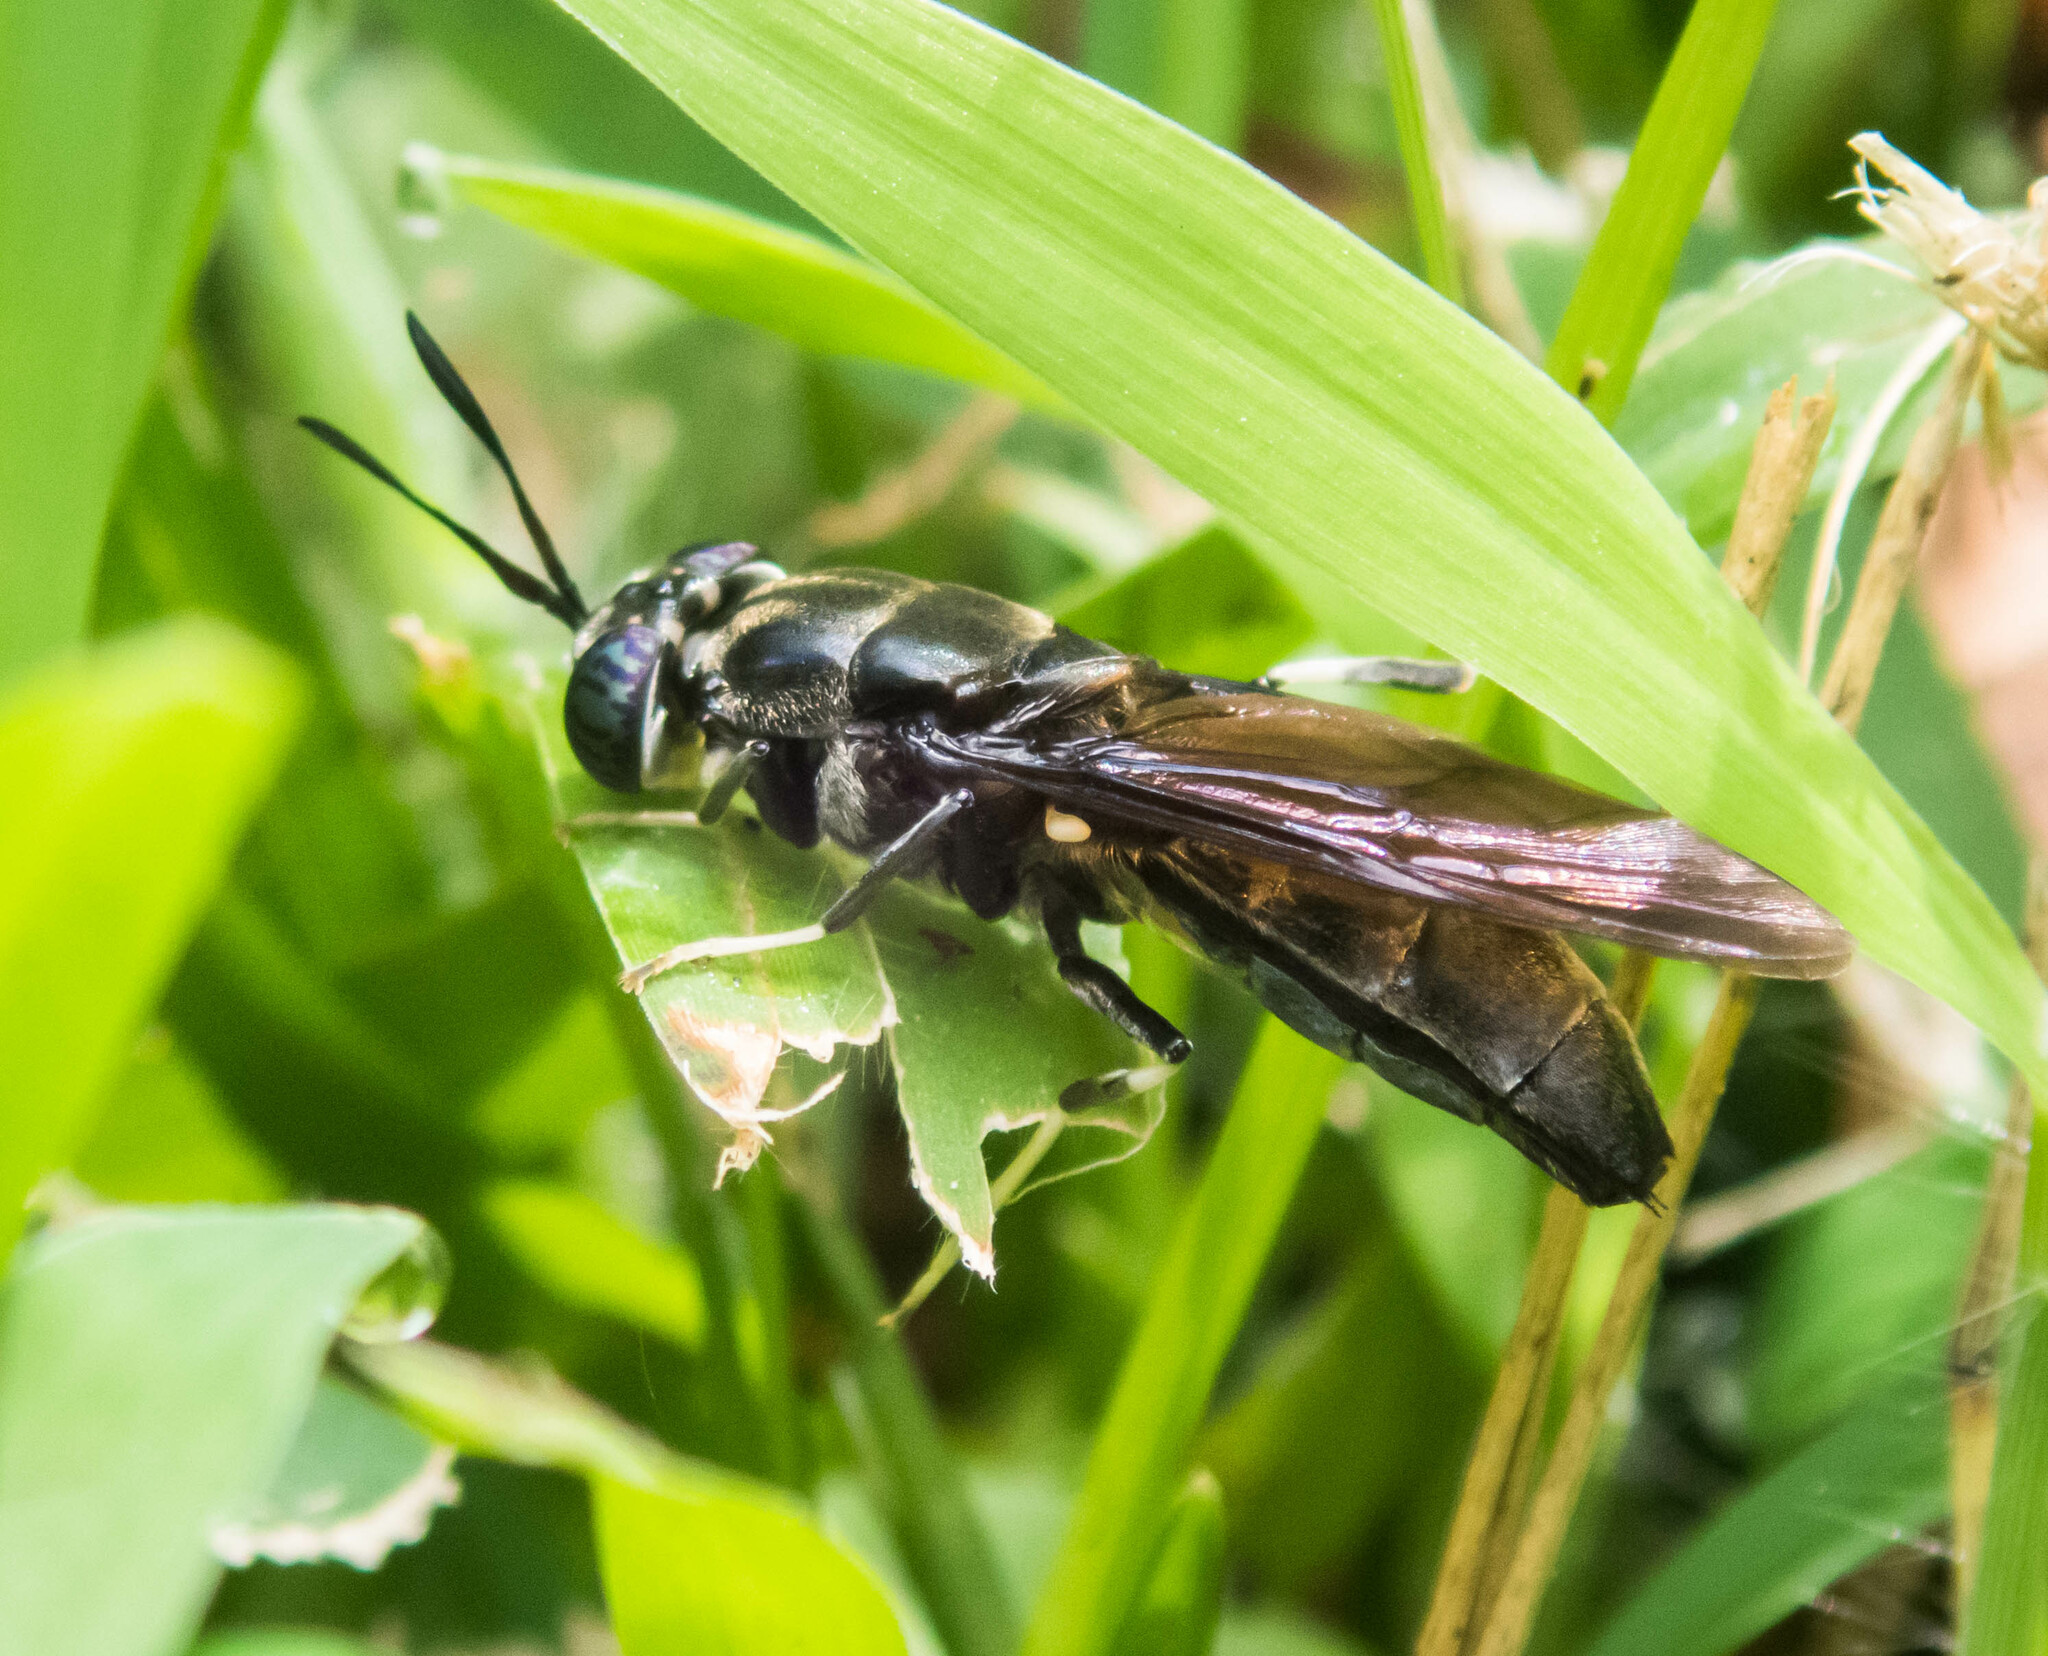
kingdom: Animalia
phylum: Arthropoda
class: Insecta
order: Diptera
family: Stratiomyidae
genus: Hermetia
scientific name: Hermetia illucens
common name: Black soldier fly
